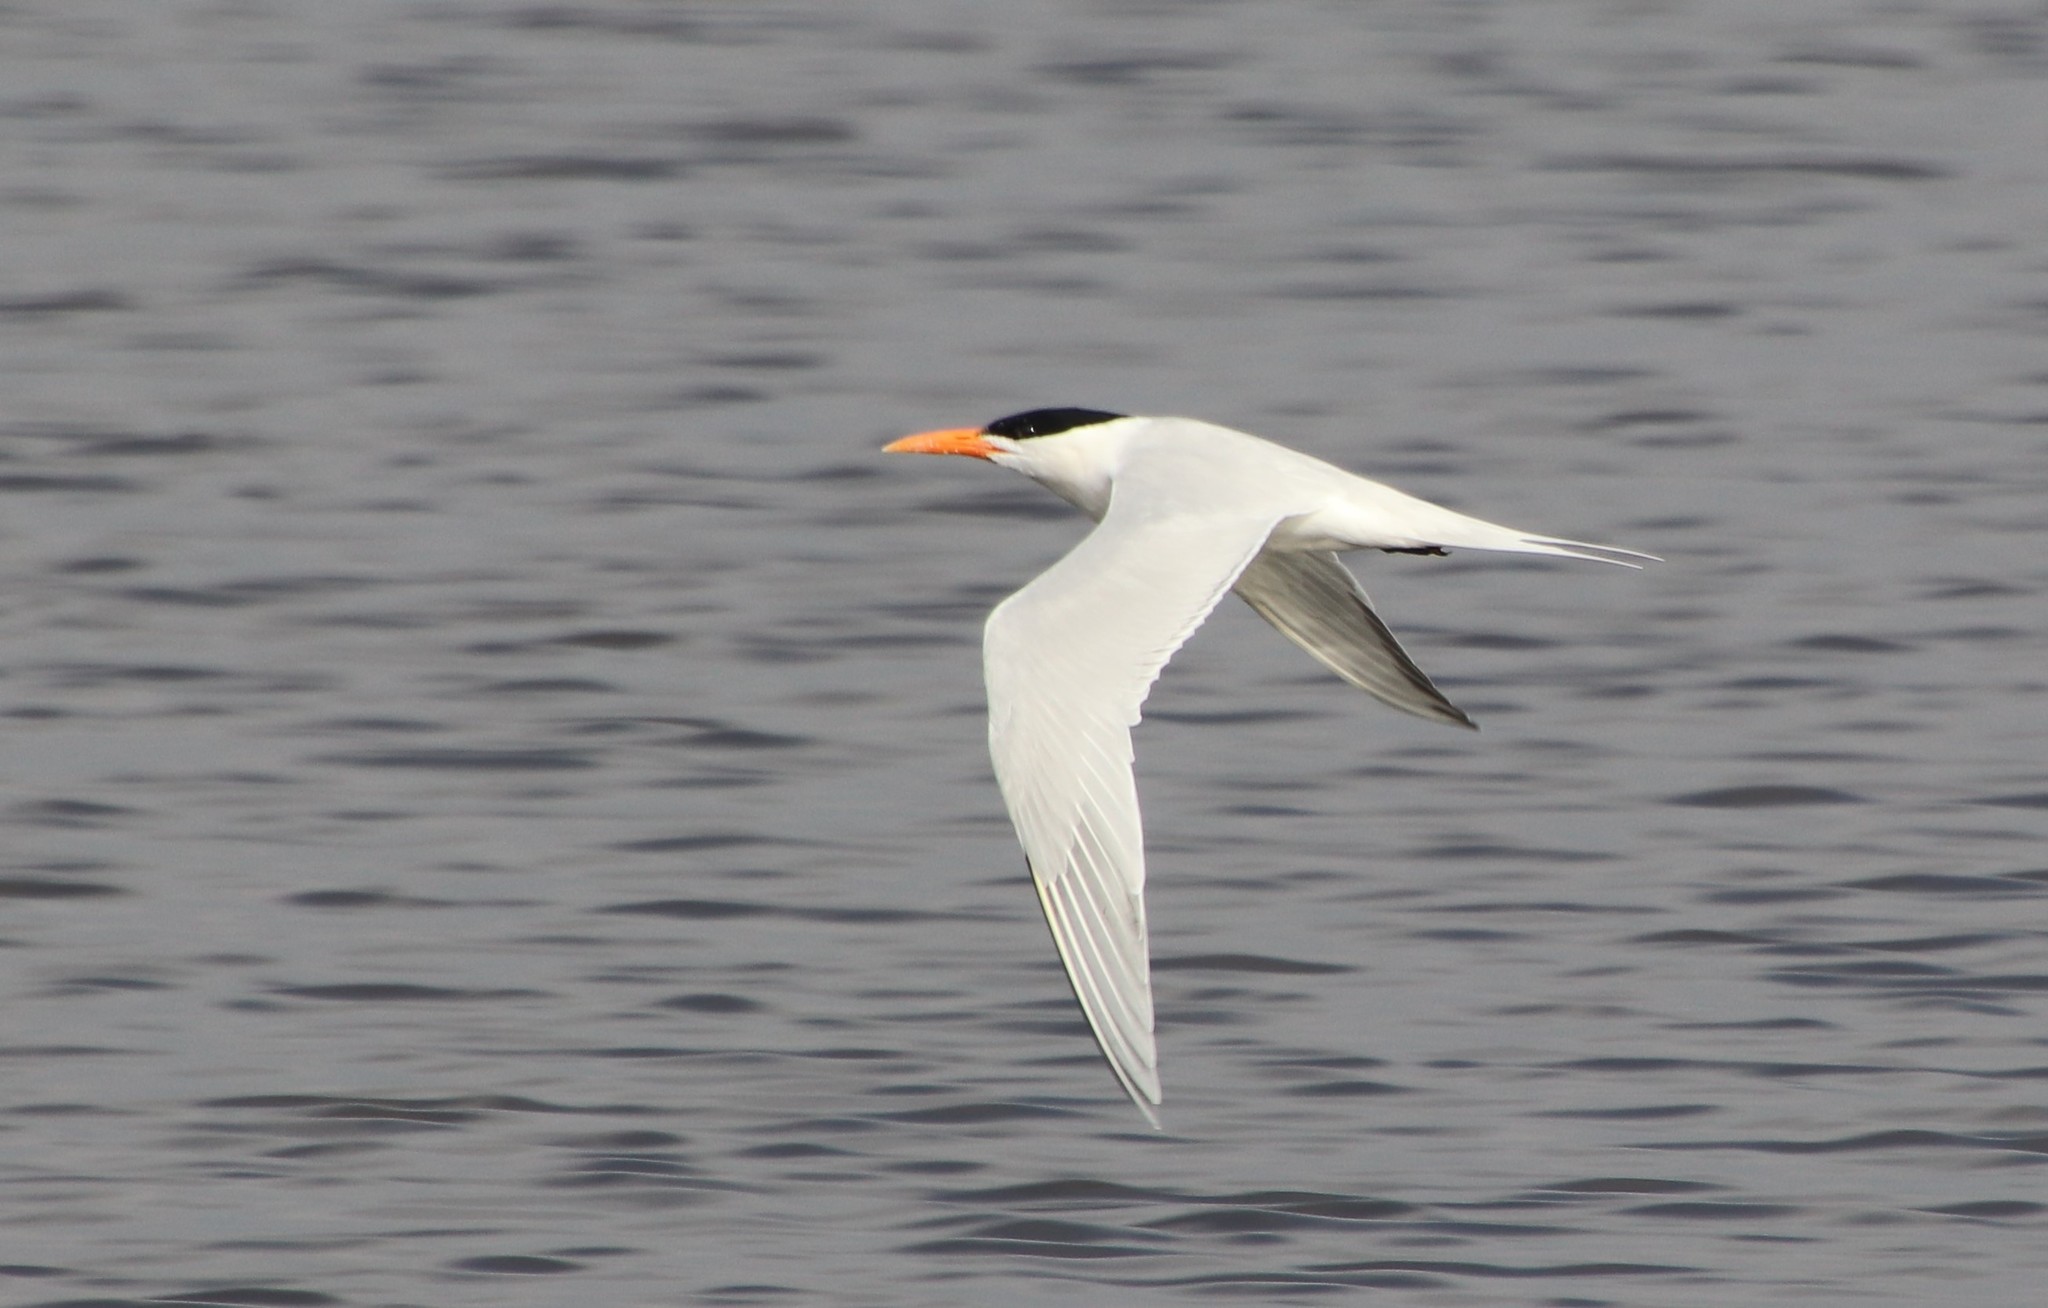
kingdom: Animalia
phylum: Chordata
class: Aves
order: Charadriiformes
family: Laridae
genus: Thalasseus
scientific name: Thalasseus maximus
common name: Royal tern
